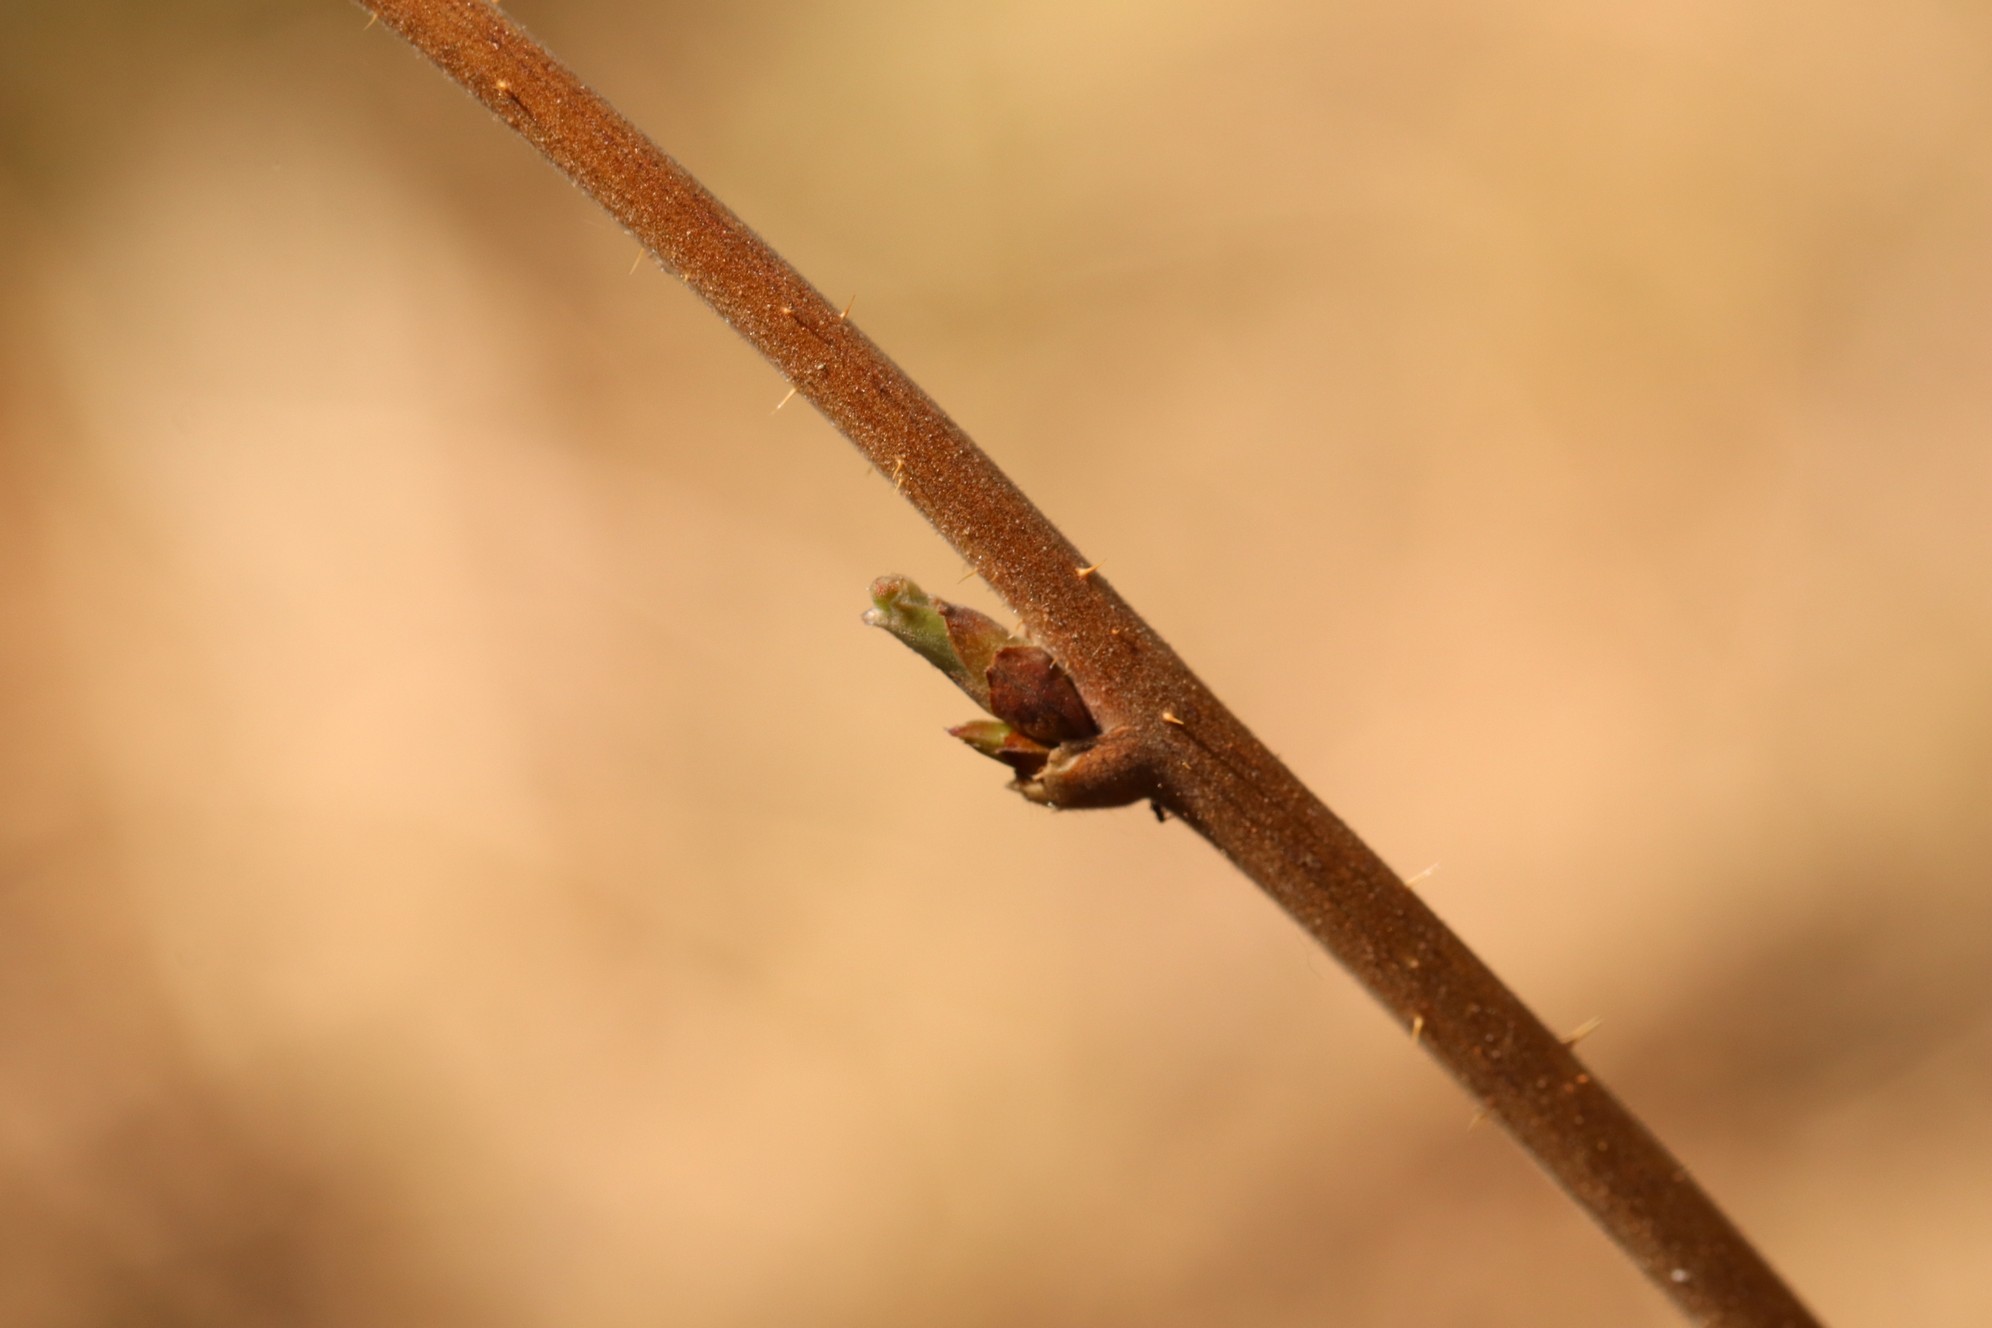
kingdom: Plantae
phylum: Tracheophyta
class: Magnoliopsida
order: Rosales
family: Rosaceae
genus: Rubus
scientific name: Rubus sachalinensis
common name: Red raspberry
